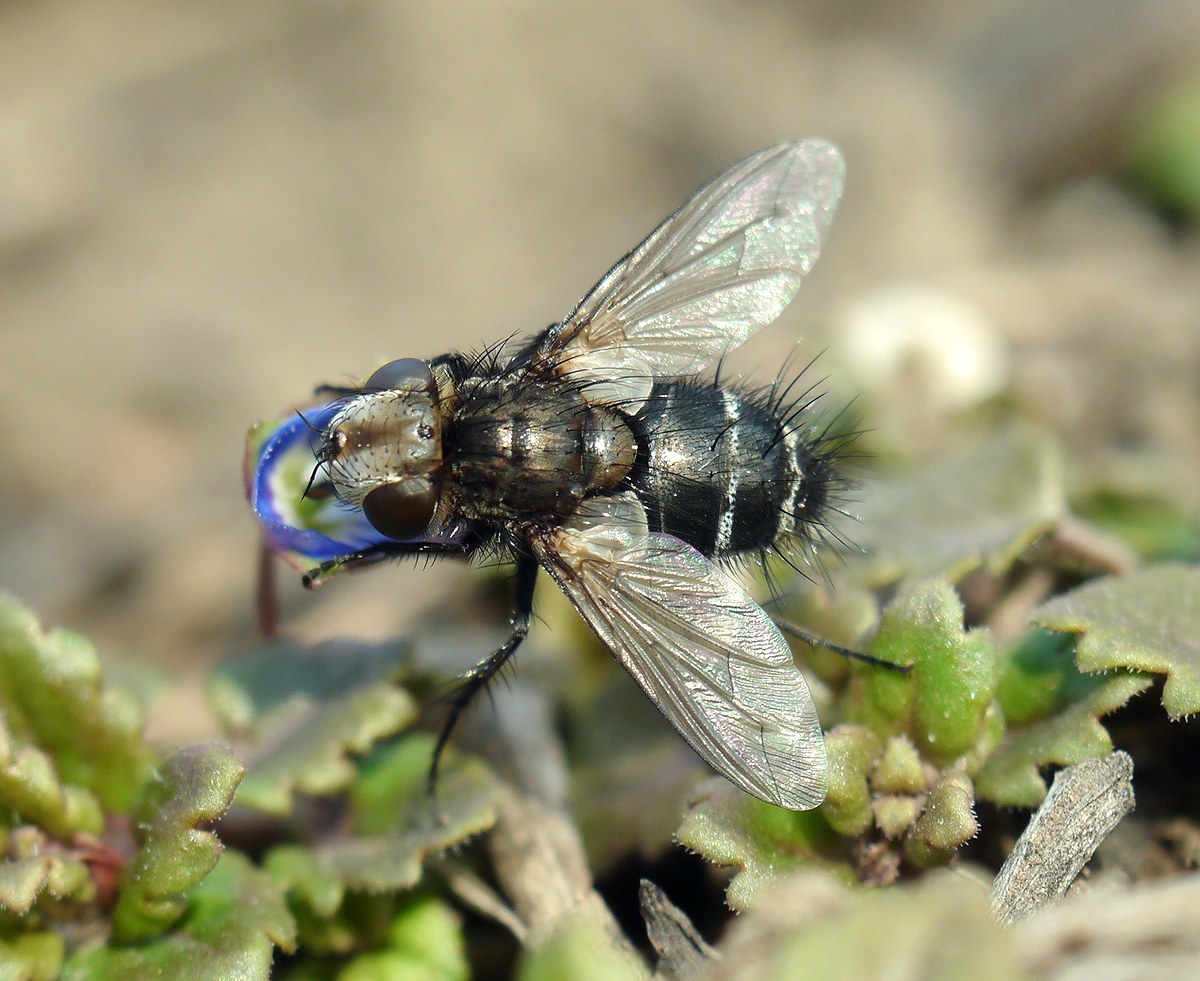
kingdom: Animalia
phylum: Arthropoda
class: Insecta
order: Diptera
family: Tachinidae
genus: Gonia
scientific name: Gonia picea
